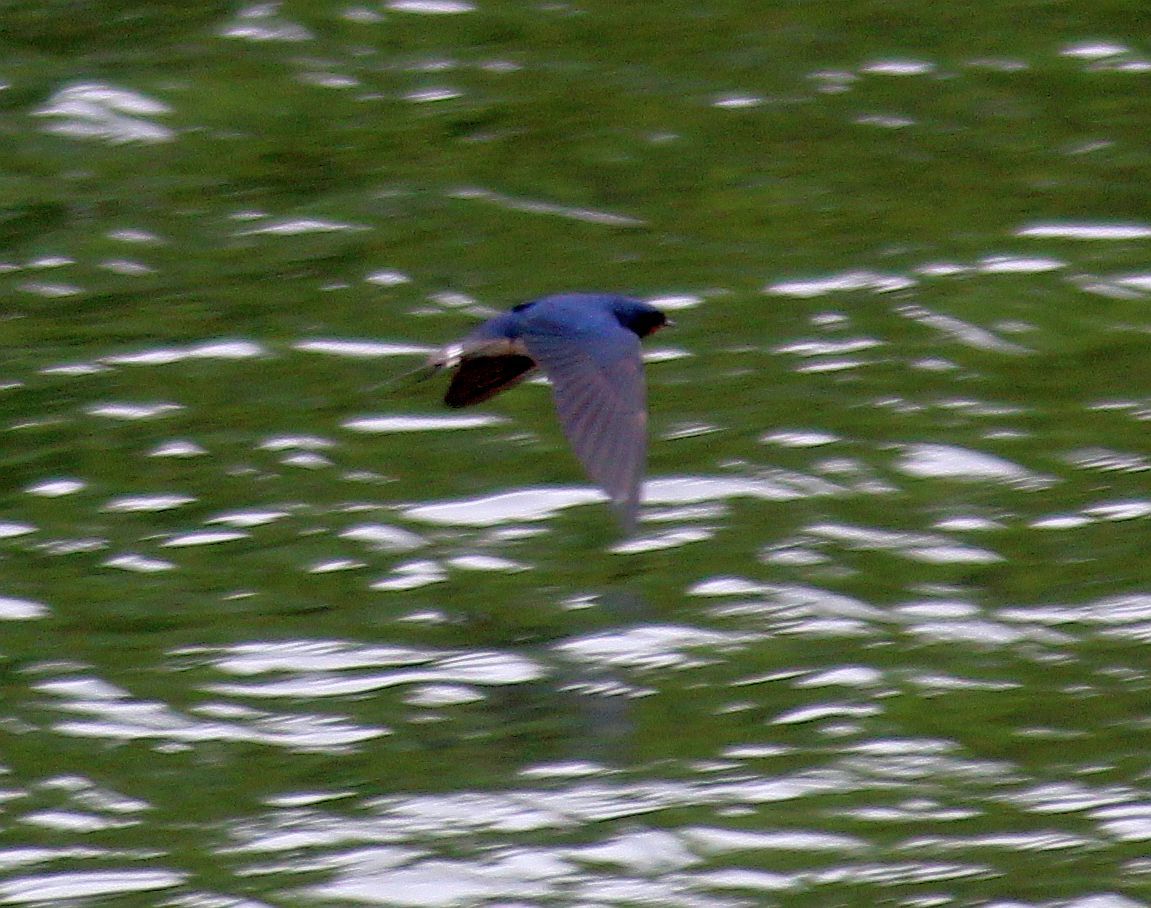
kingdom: Animalia
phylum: Chordata
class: Aves
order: Passeriformes
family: Hirundinidae
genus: Hirundo
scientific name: Hirundo rustica
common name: Barn swallow
